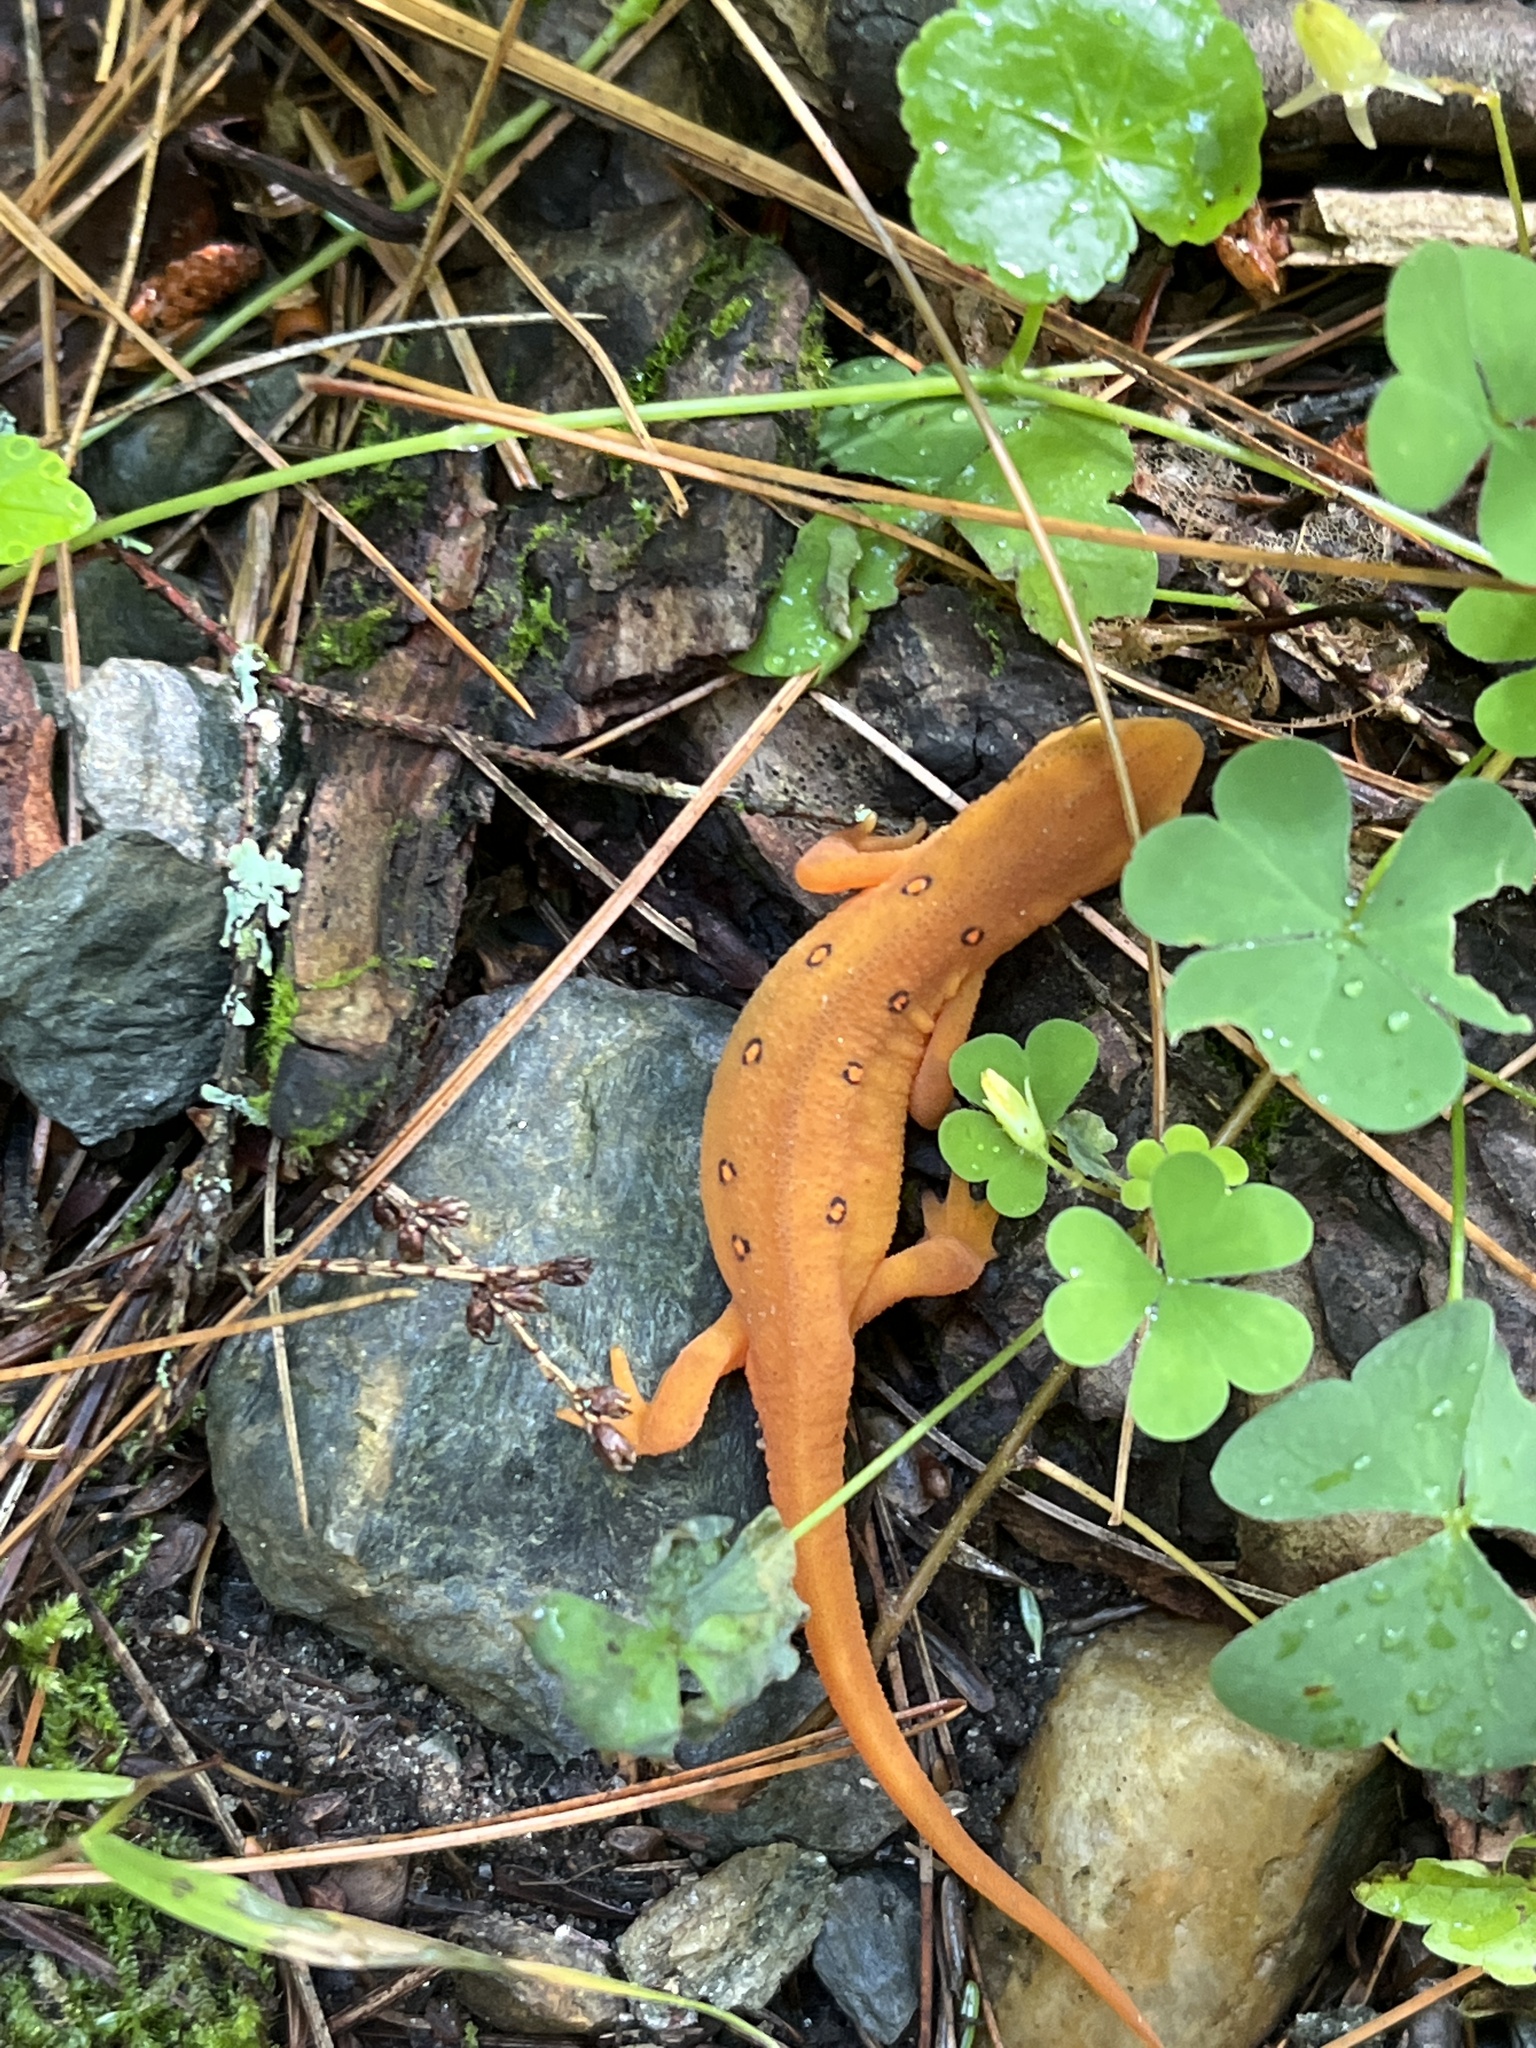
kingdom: Animalia
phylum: Chordata
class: Amphibia
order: Caudata
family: Salamandridae
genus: Notophthalmus
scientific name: Notophthalmus viridescens
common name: Eastern newt
